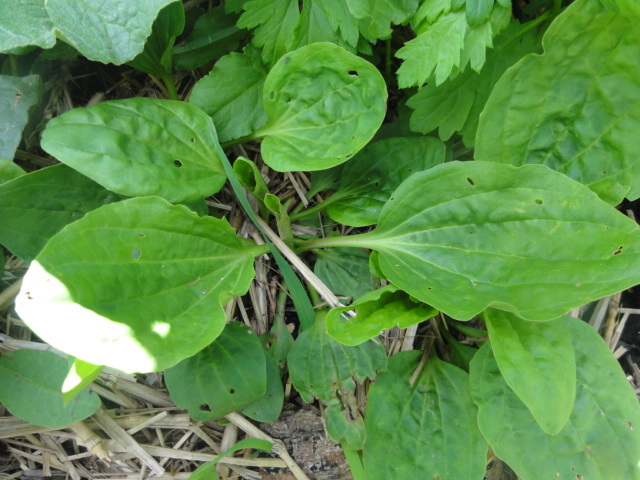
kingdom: Plantae
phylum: Tracheophyta
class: Magnoliopsida
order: Lamiales
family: Plantaginaceae
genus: Plantago
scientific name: Plantago major
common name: Common plantain
